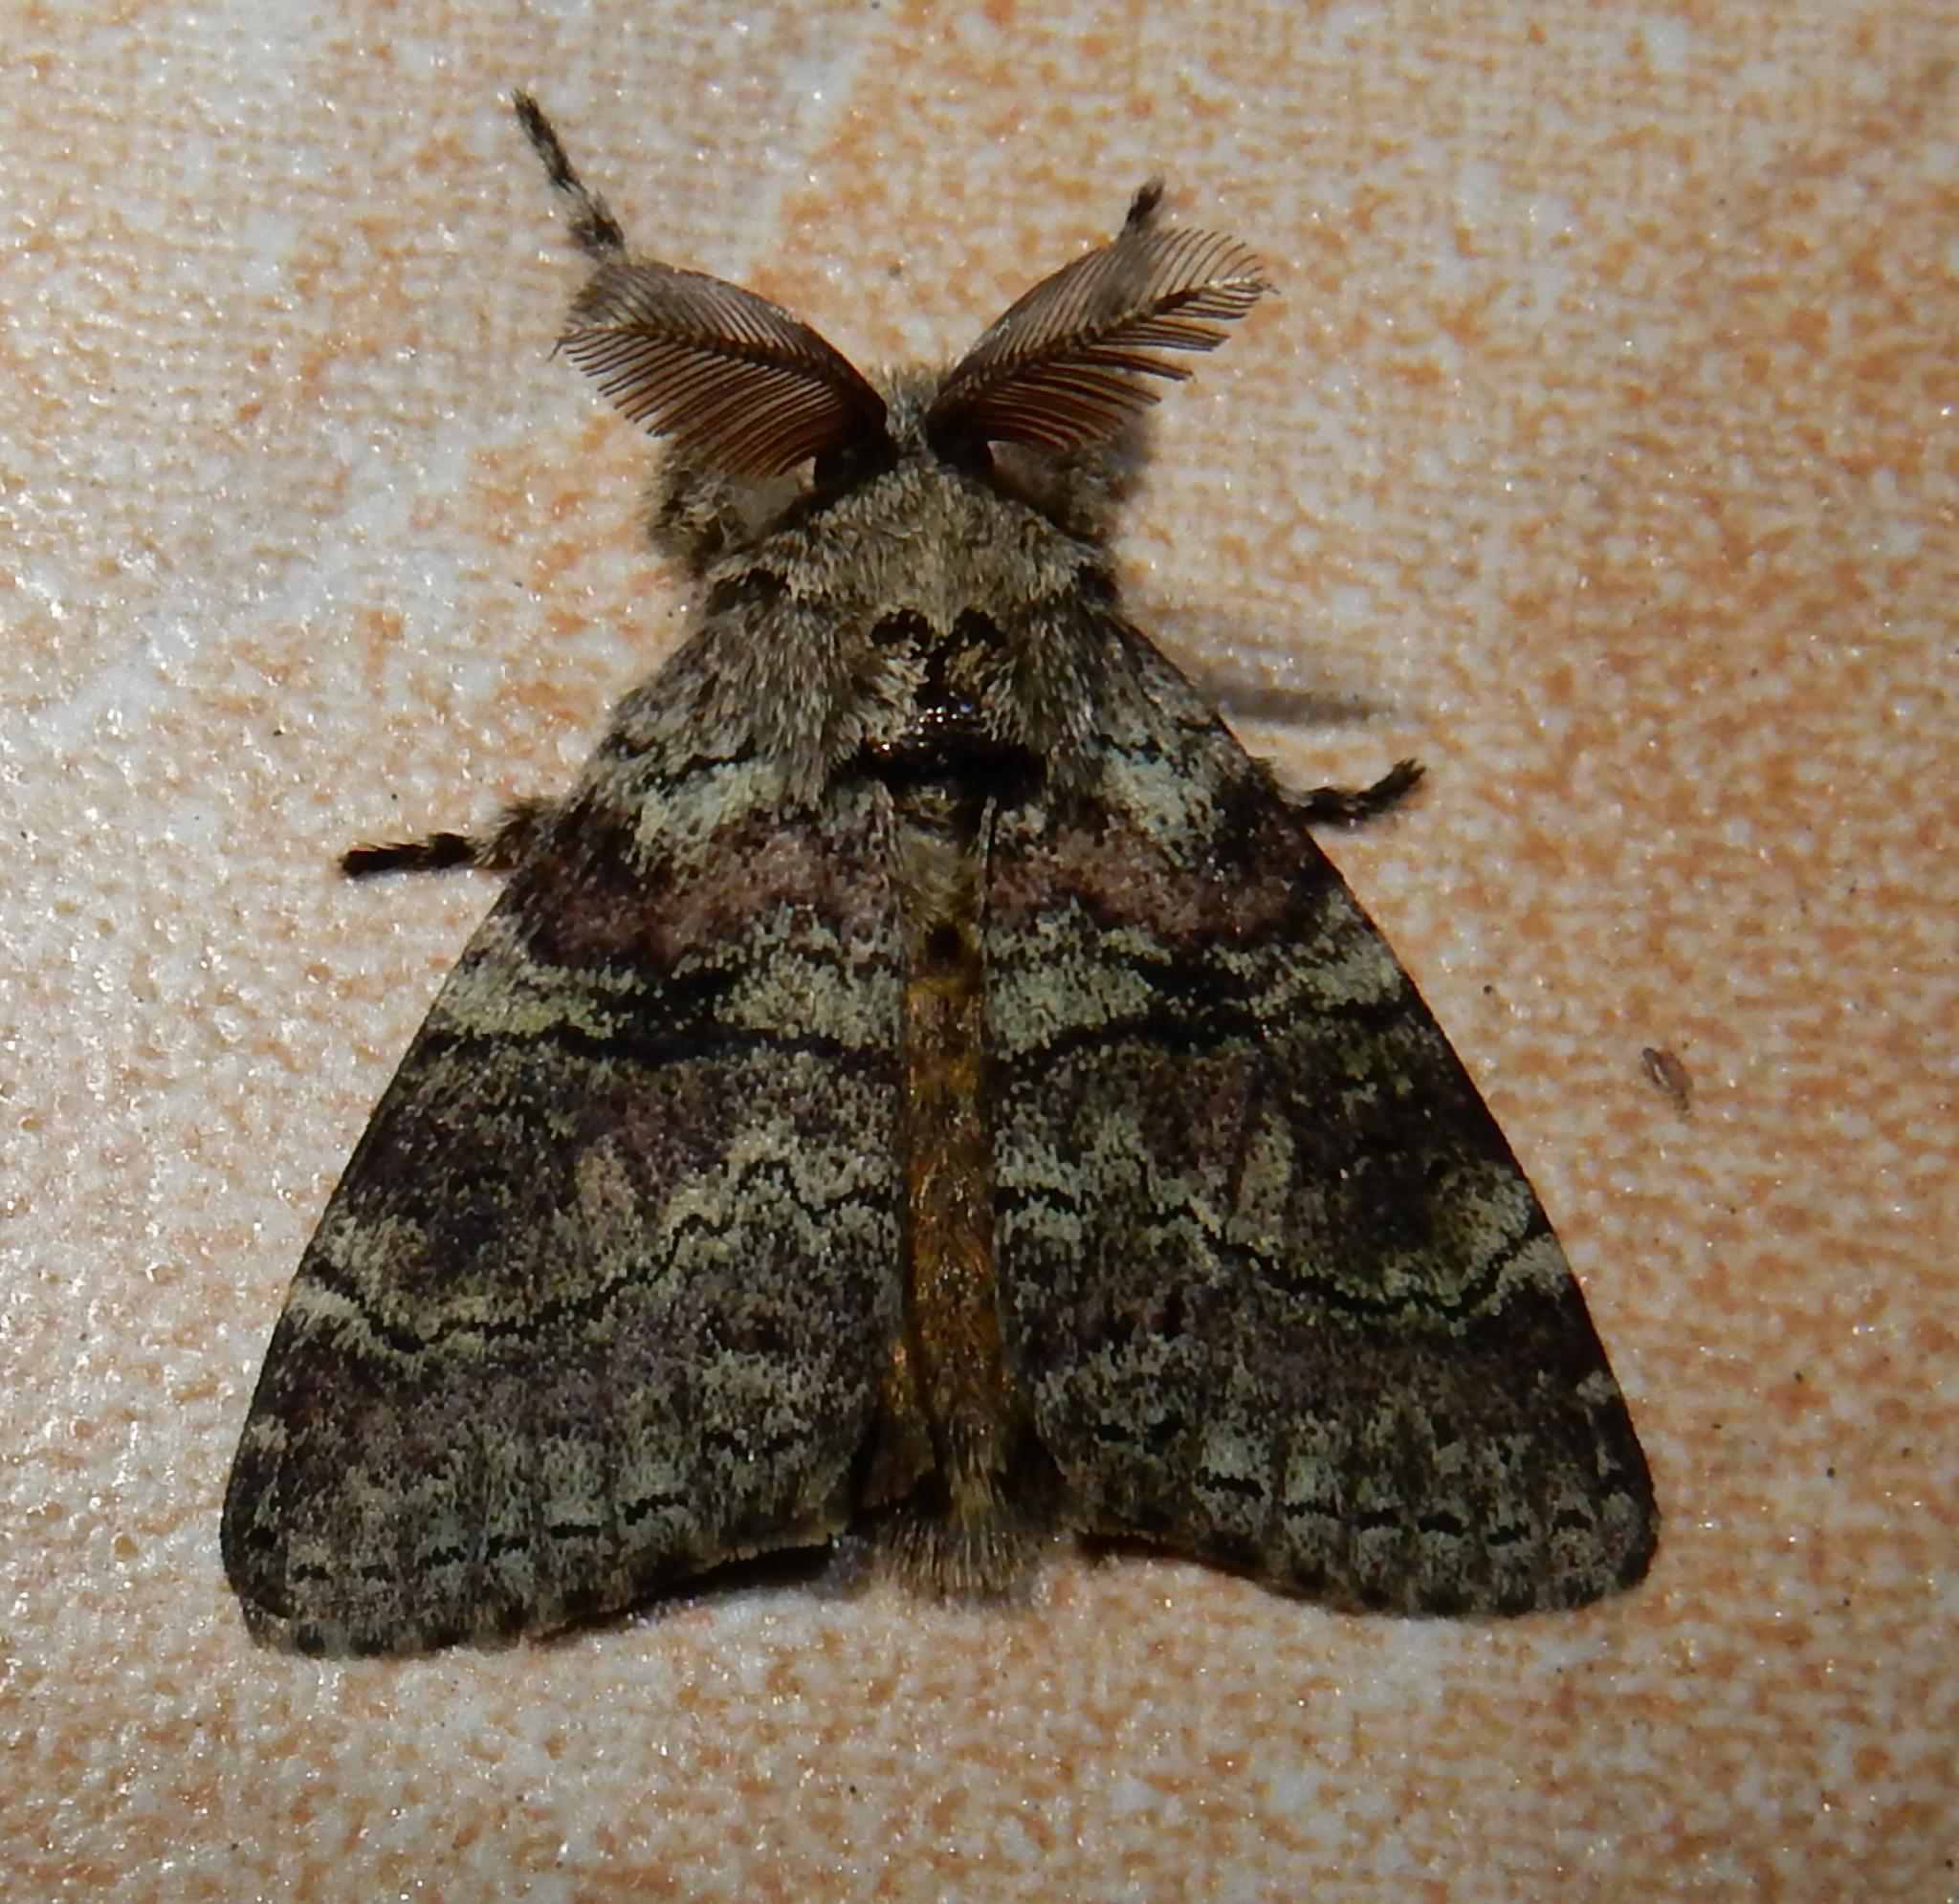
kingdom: Animalia
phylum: Arthropoda
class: Insecta
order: Lepidoptera
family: Erebidae
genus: Laelia
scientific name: Laelia fusca
